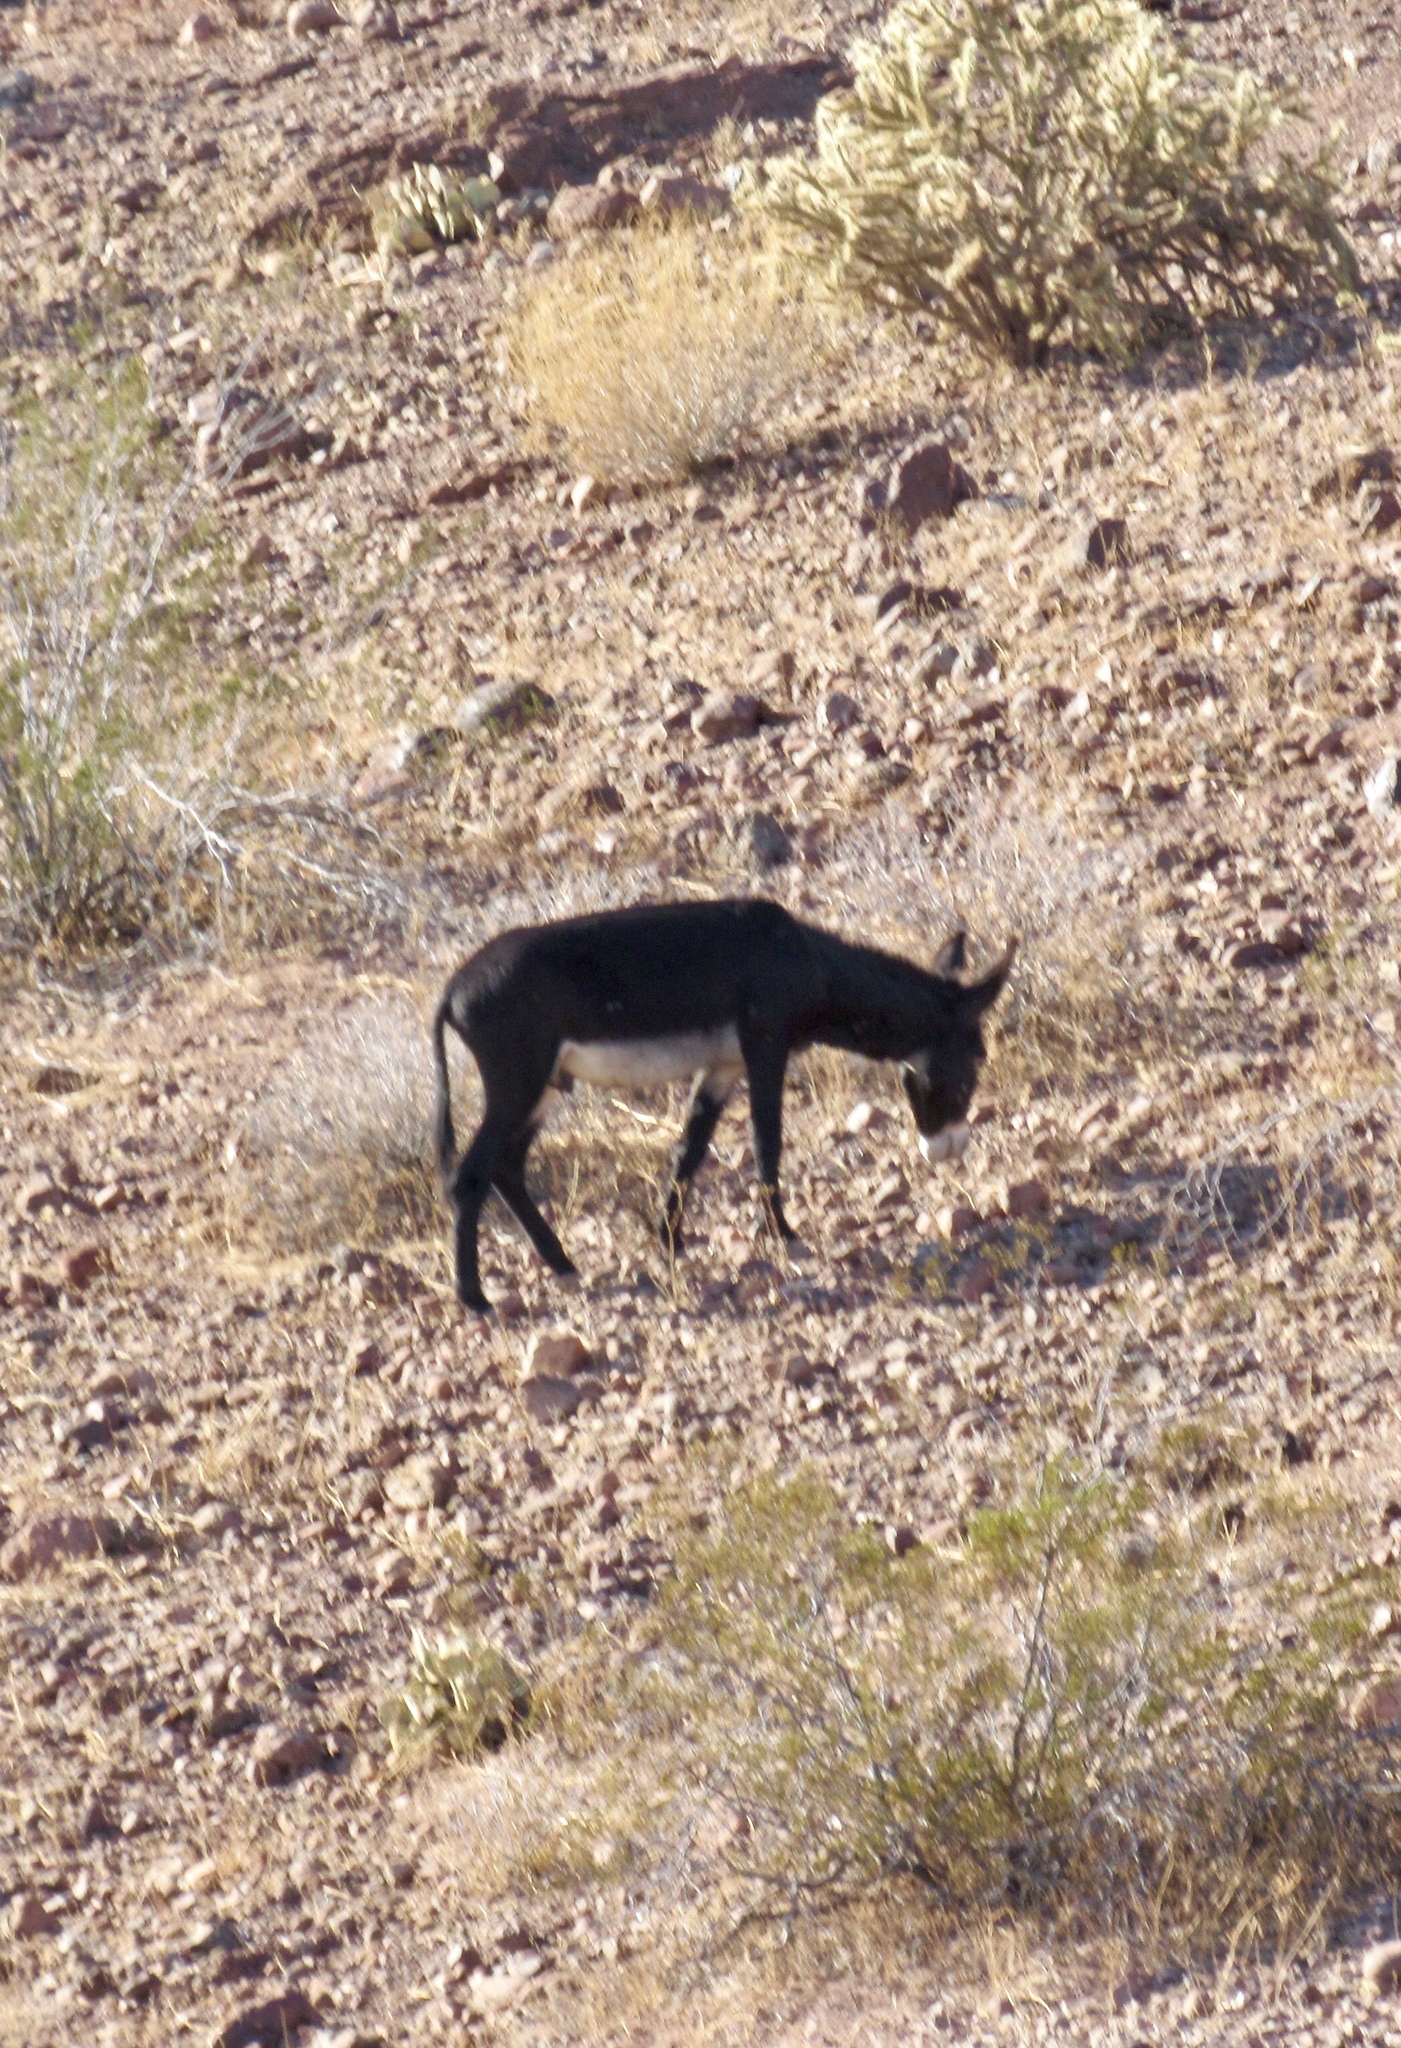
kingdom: Animalia
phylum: Chordata
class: Mammalia
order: Perissodactyla
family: Equidae
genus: Equus
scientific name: Equus asinus
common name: Ass
